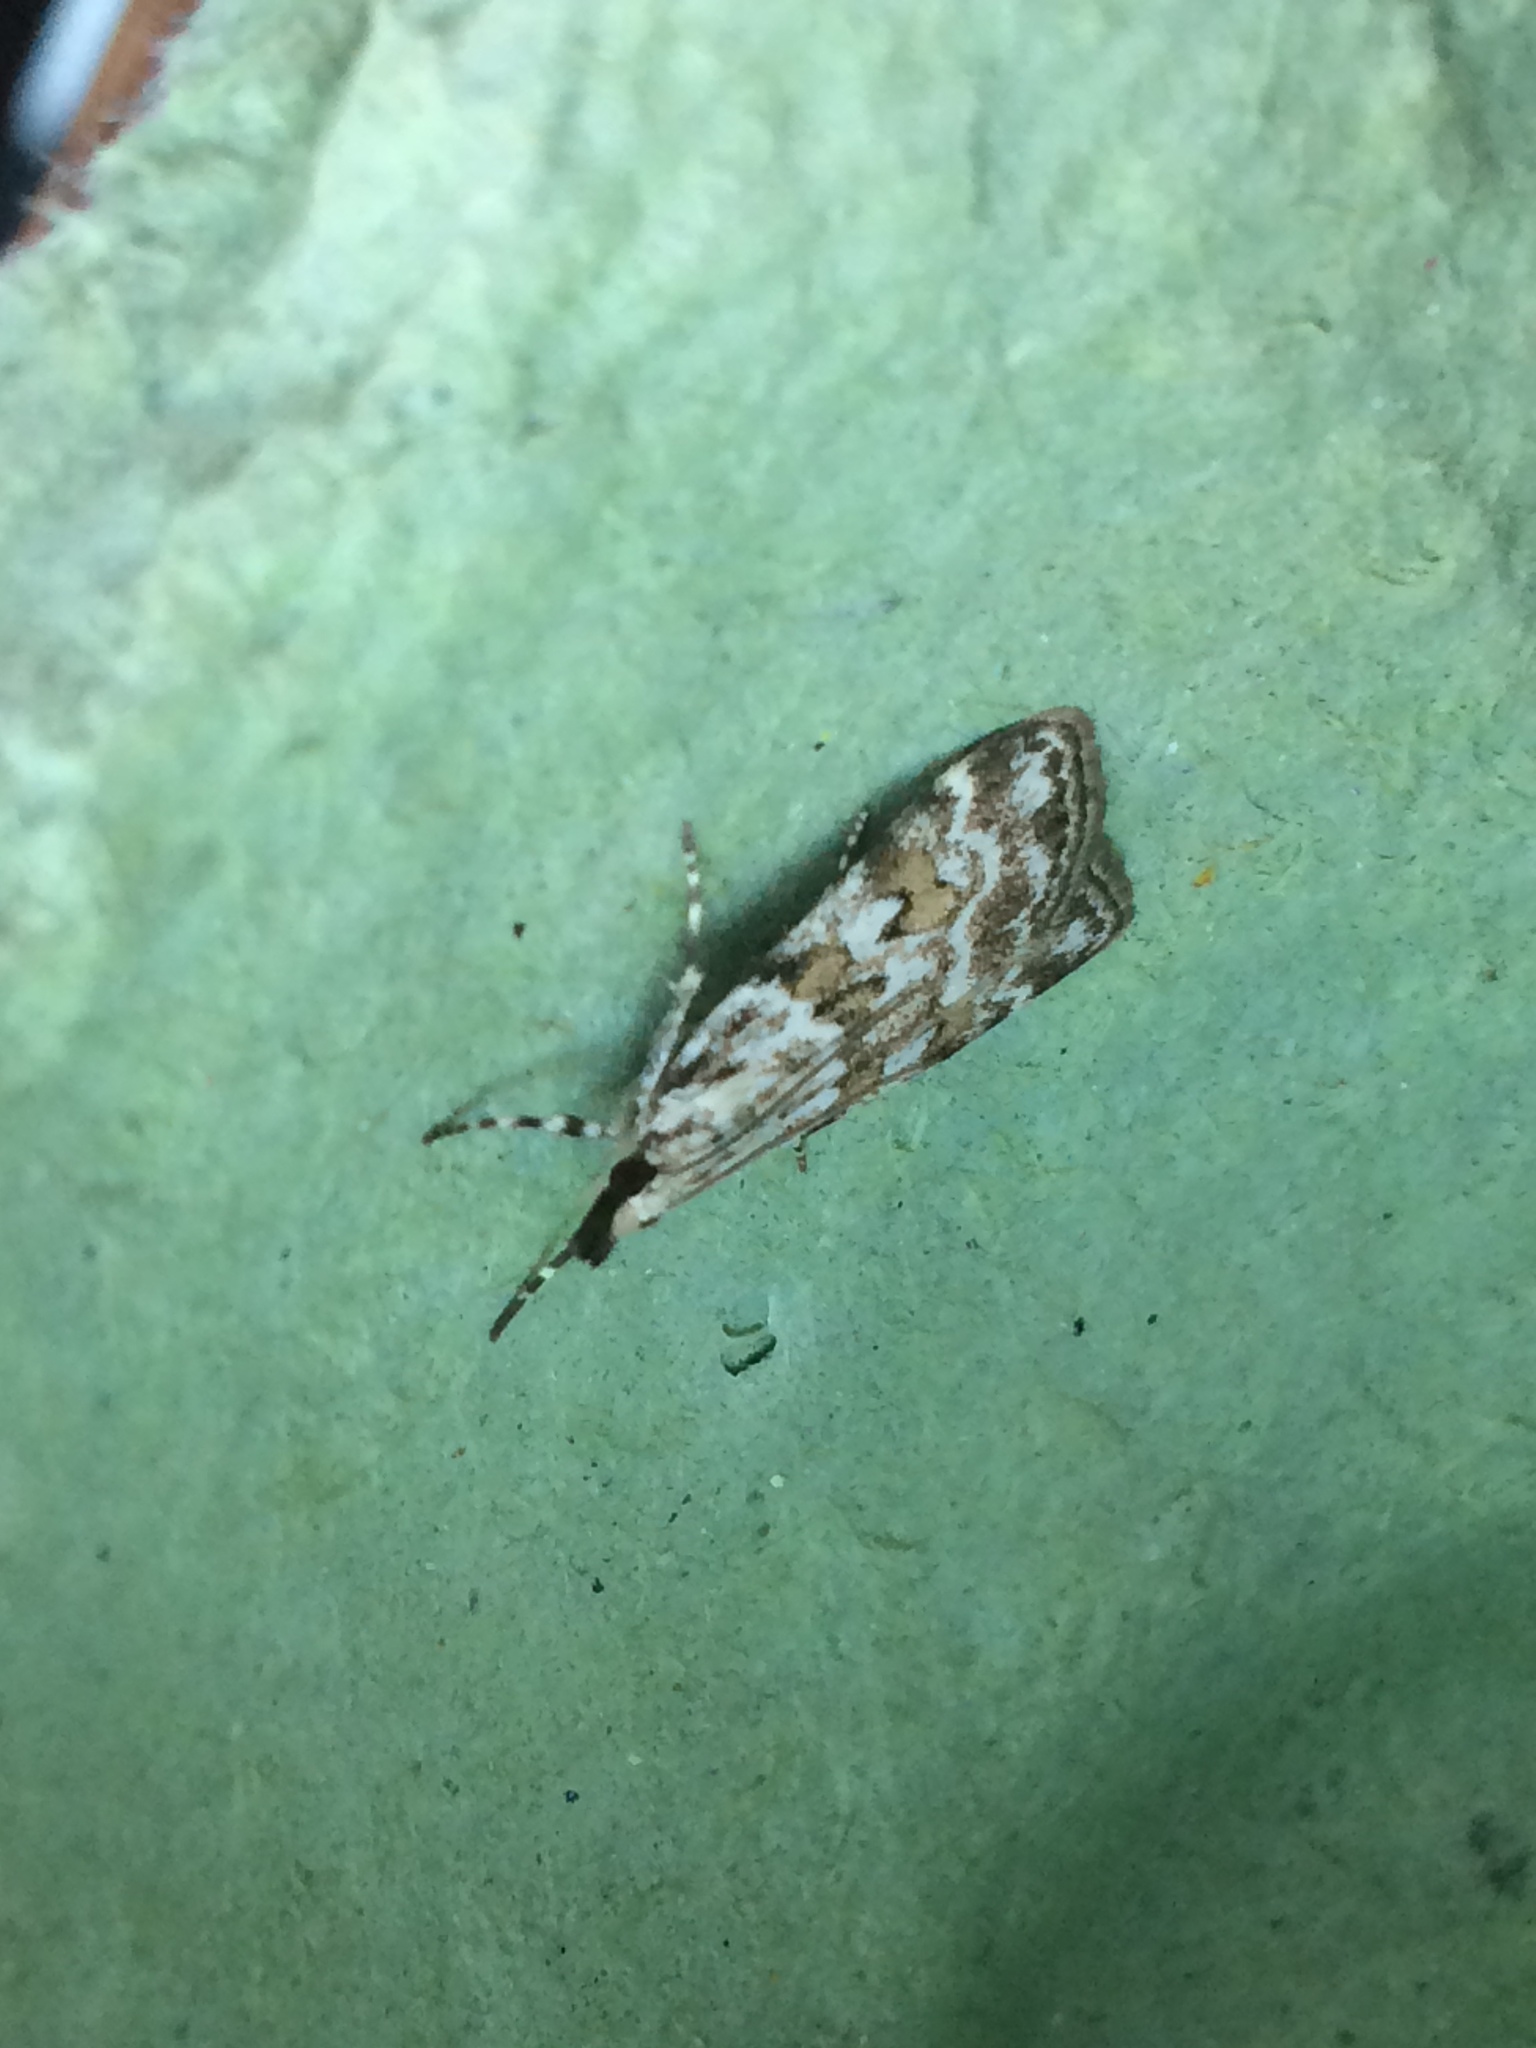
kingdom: Animalia
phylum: Arthropoda
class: Insecta
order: Lepidoptera
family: Crambidae
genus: Scoparia
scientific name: Scoparia pyralella
